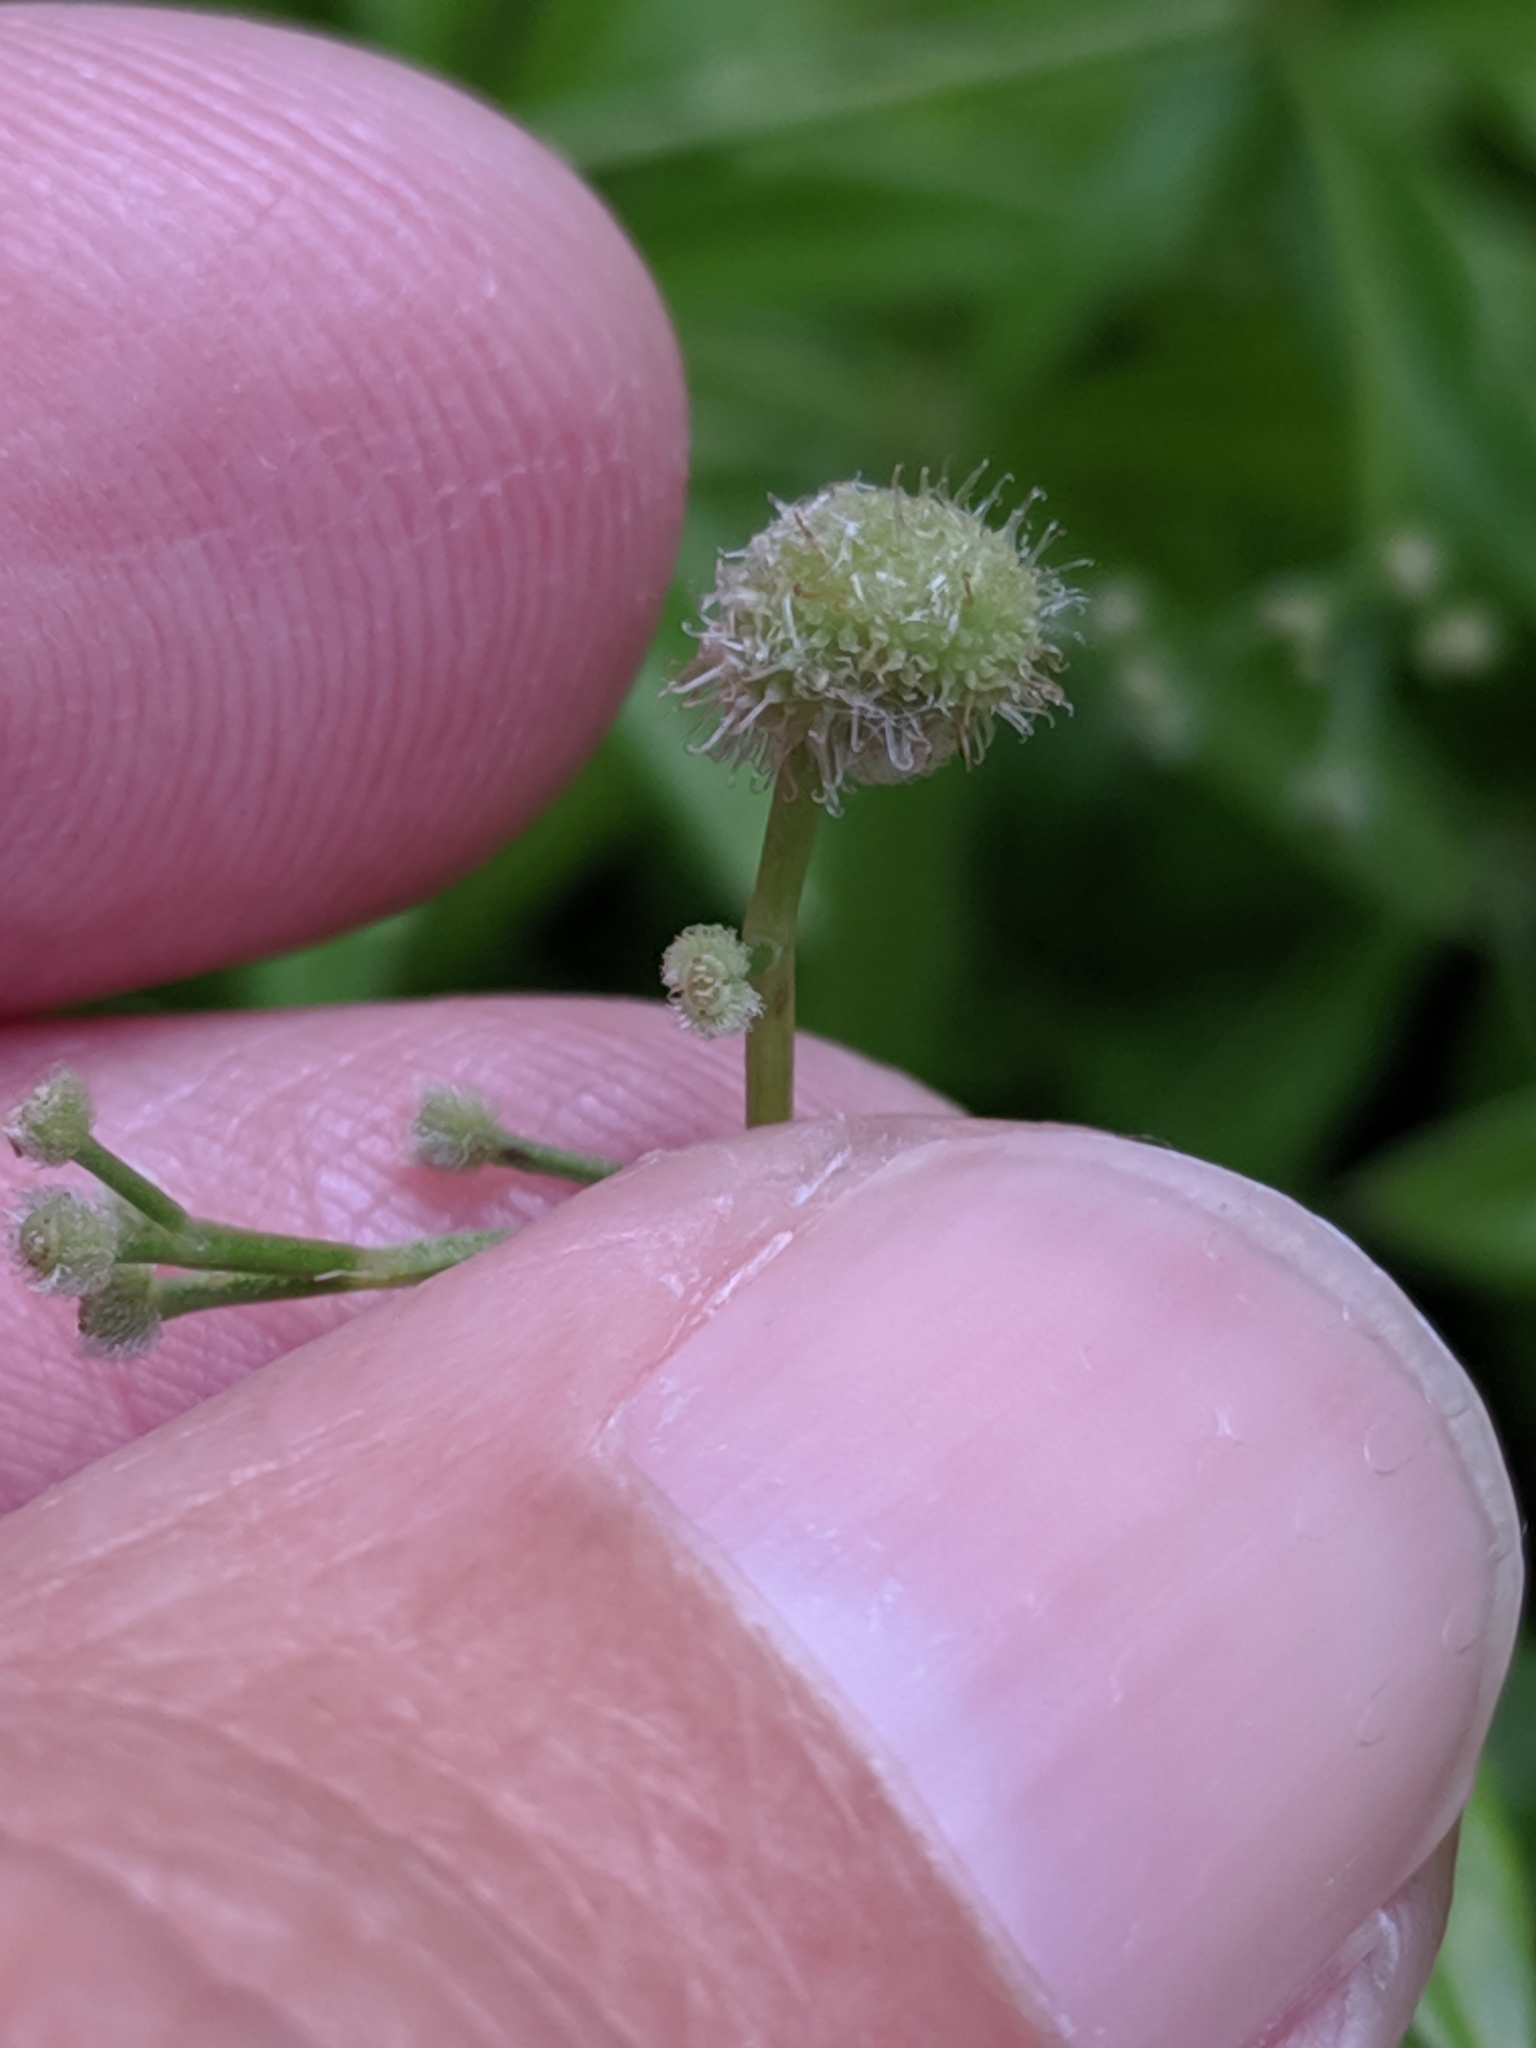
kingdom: Plantae
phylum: Tracheophyta
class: Magnoliopsida
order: Gentianales
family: Rubiaceae
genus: Galium
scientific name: Galium odoratum
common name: Sweet woodruff
